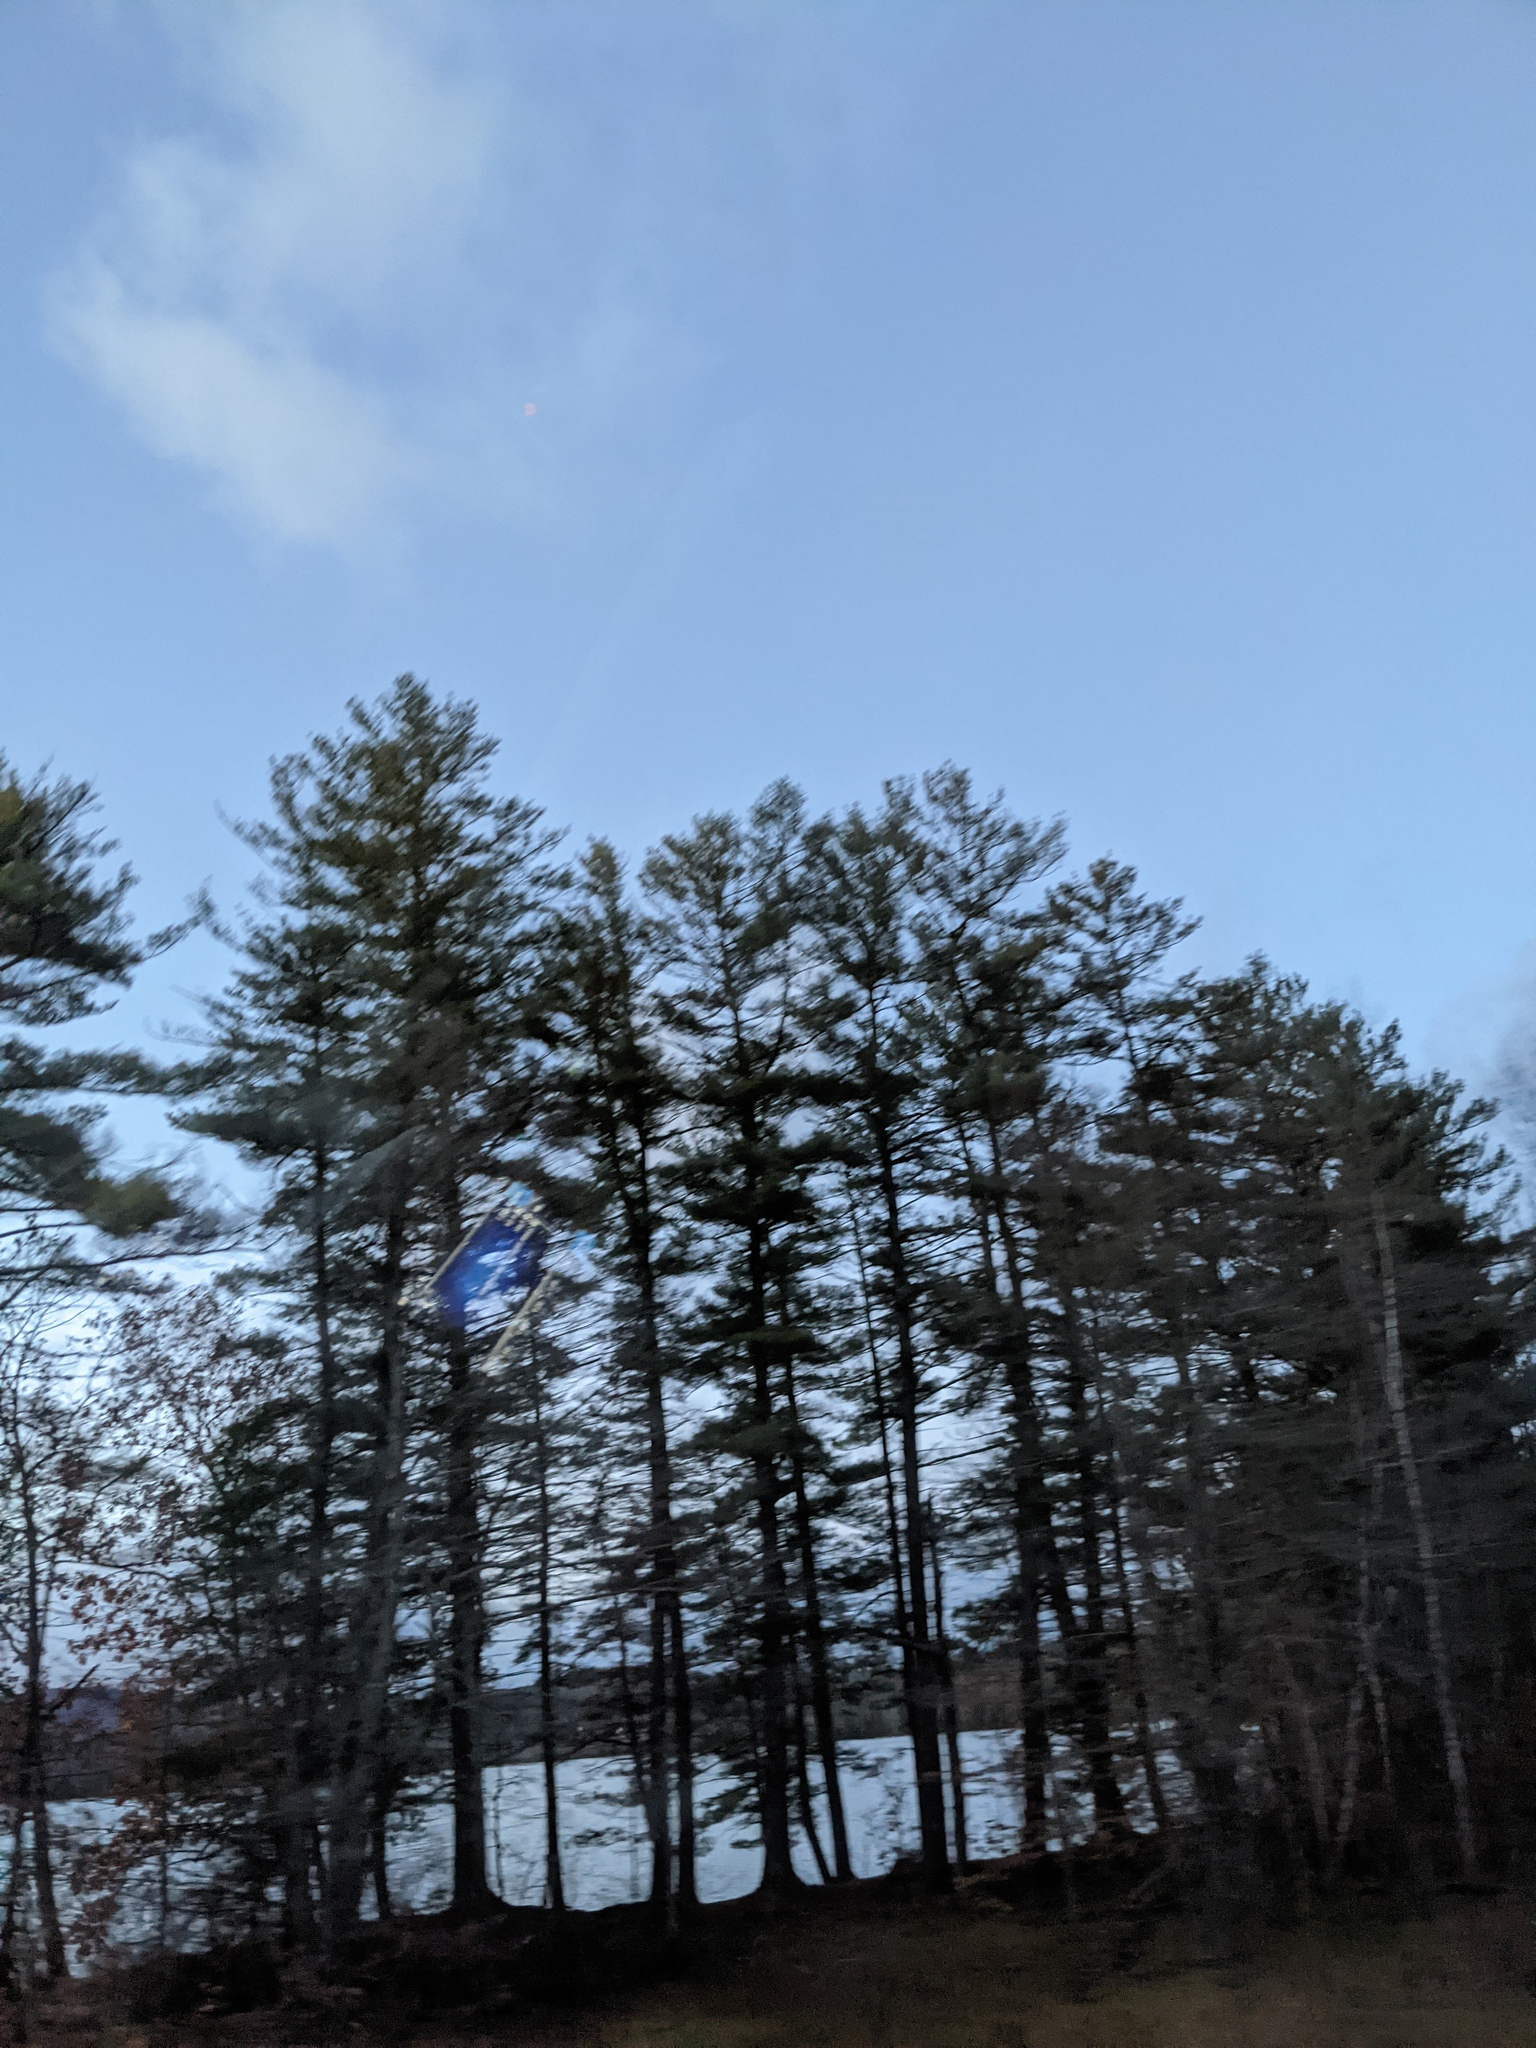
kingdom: Plantae
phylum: Tracheophyta
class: Pinopsida
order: Pinales
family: Pinaceae
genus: Pinus
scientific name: Pinus strobus
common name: Weymouth pine
